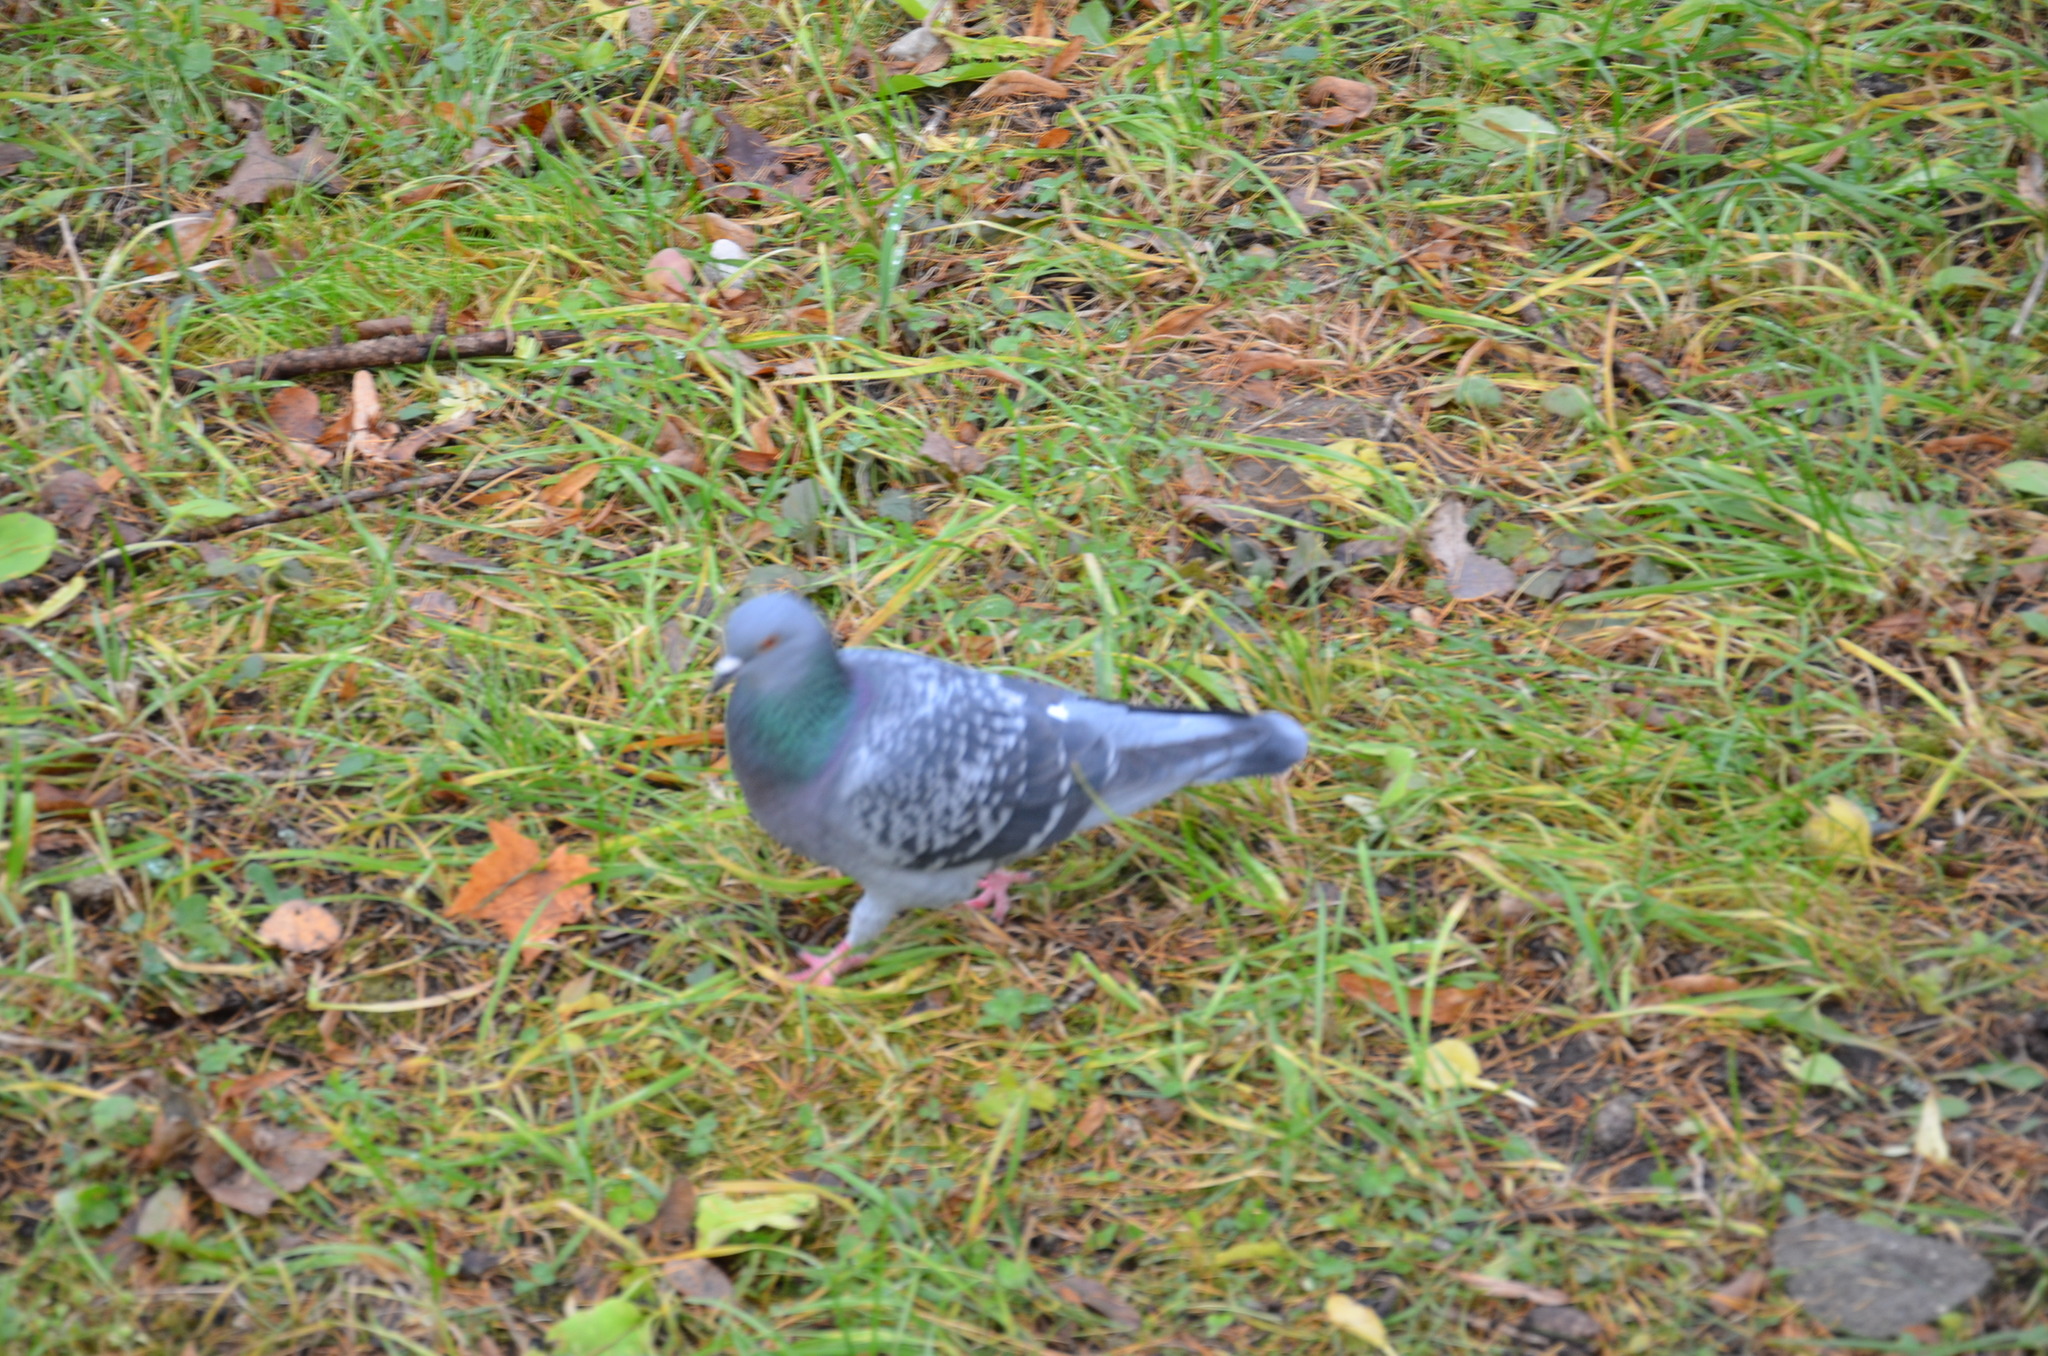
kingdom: Animalia
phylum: Chordata
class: Aves
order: Columbiformes
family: Columbidae
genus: Columba
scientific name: Columba livia
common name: Rock pigeon
